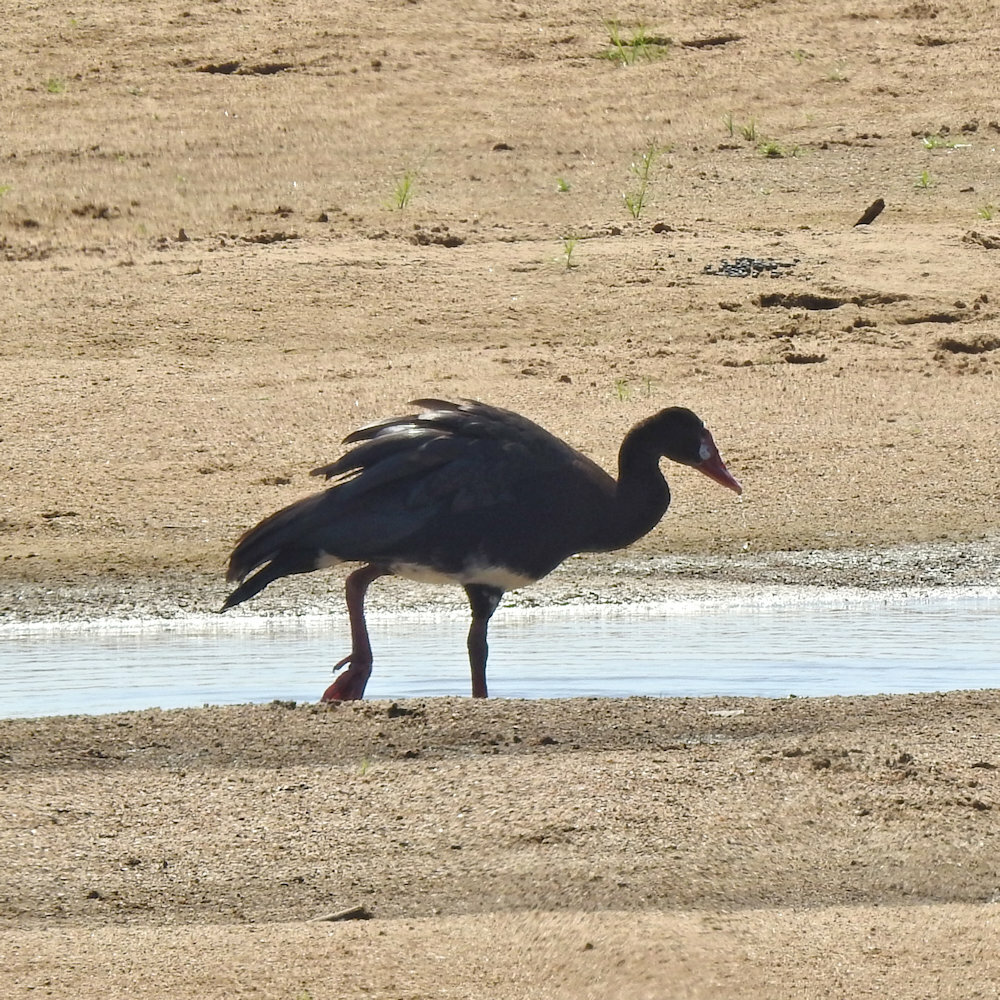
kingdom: Animalia
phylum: Chordata
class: Aves
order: Anseriformes
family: Anatidae
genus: Plectropterus
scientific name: Plectropterus gambensis
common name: Spur-winged goose
